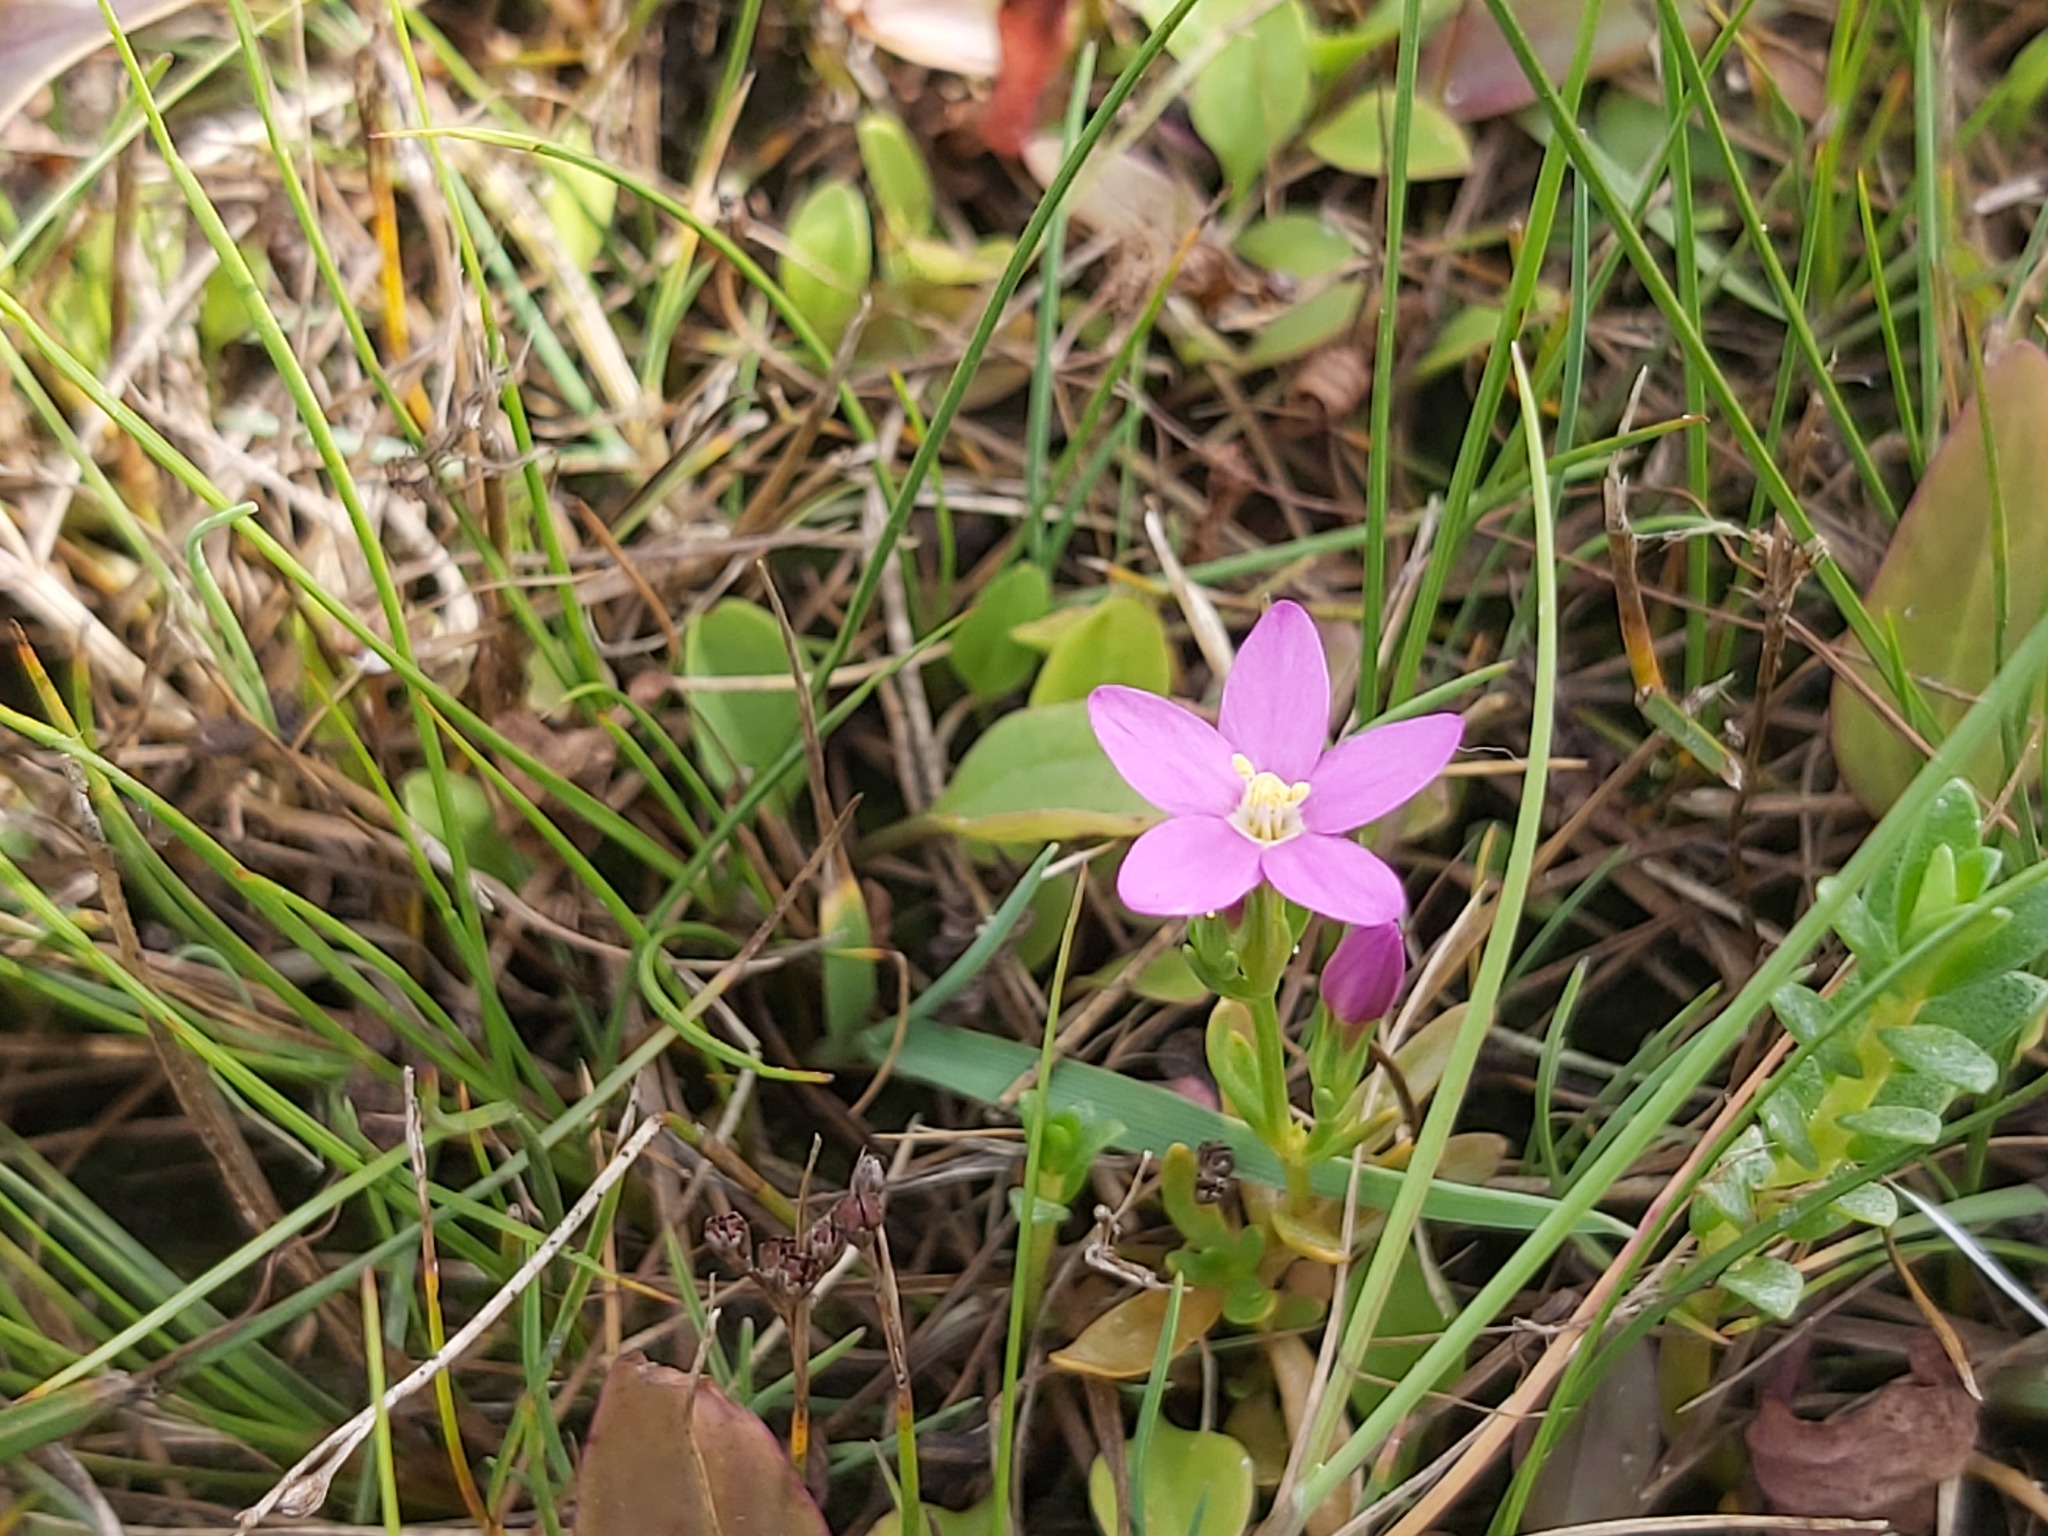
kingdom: Plantae
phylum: Tracheophyta
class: Magnoliopsida
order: Gentianales
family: Gentianaceae
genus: Centaurium
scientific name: Centaurium littorale
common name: Seaside centaury
